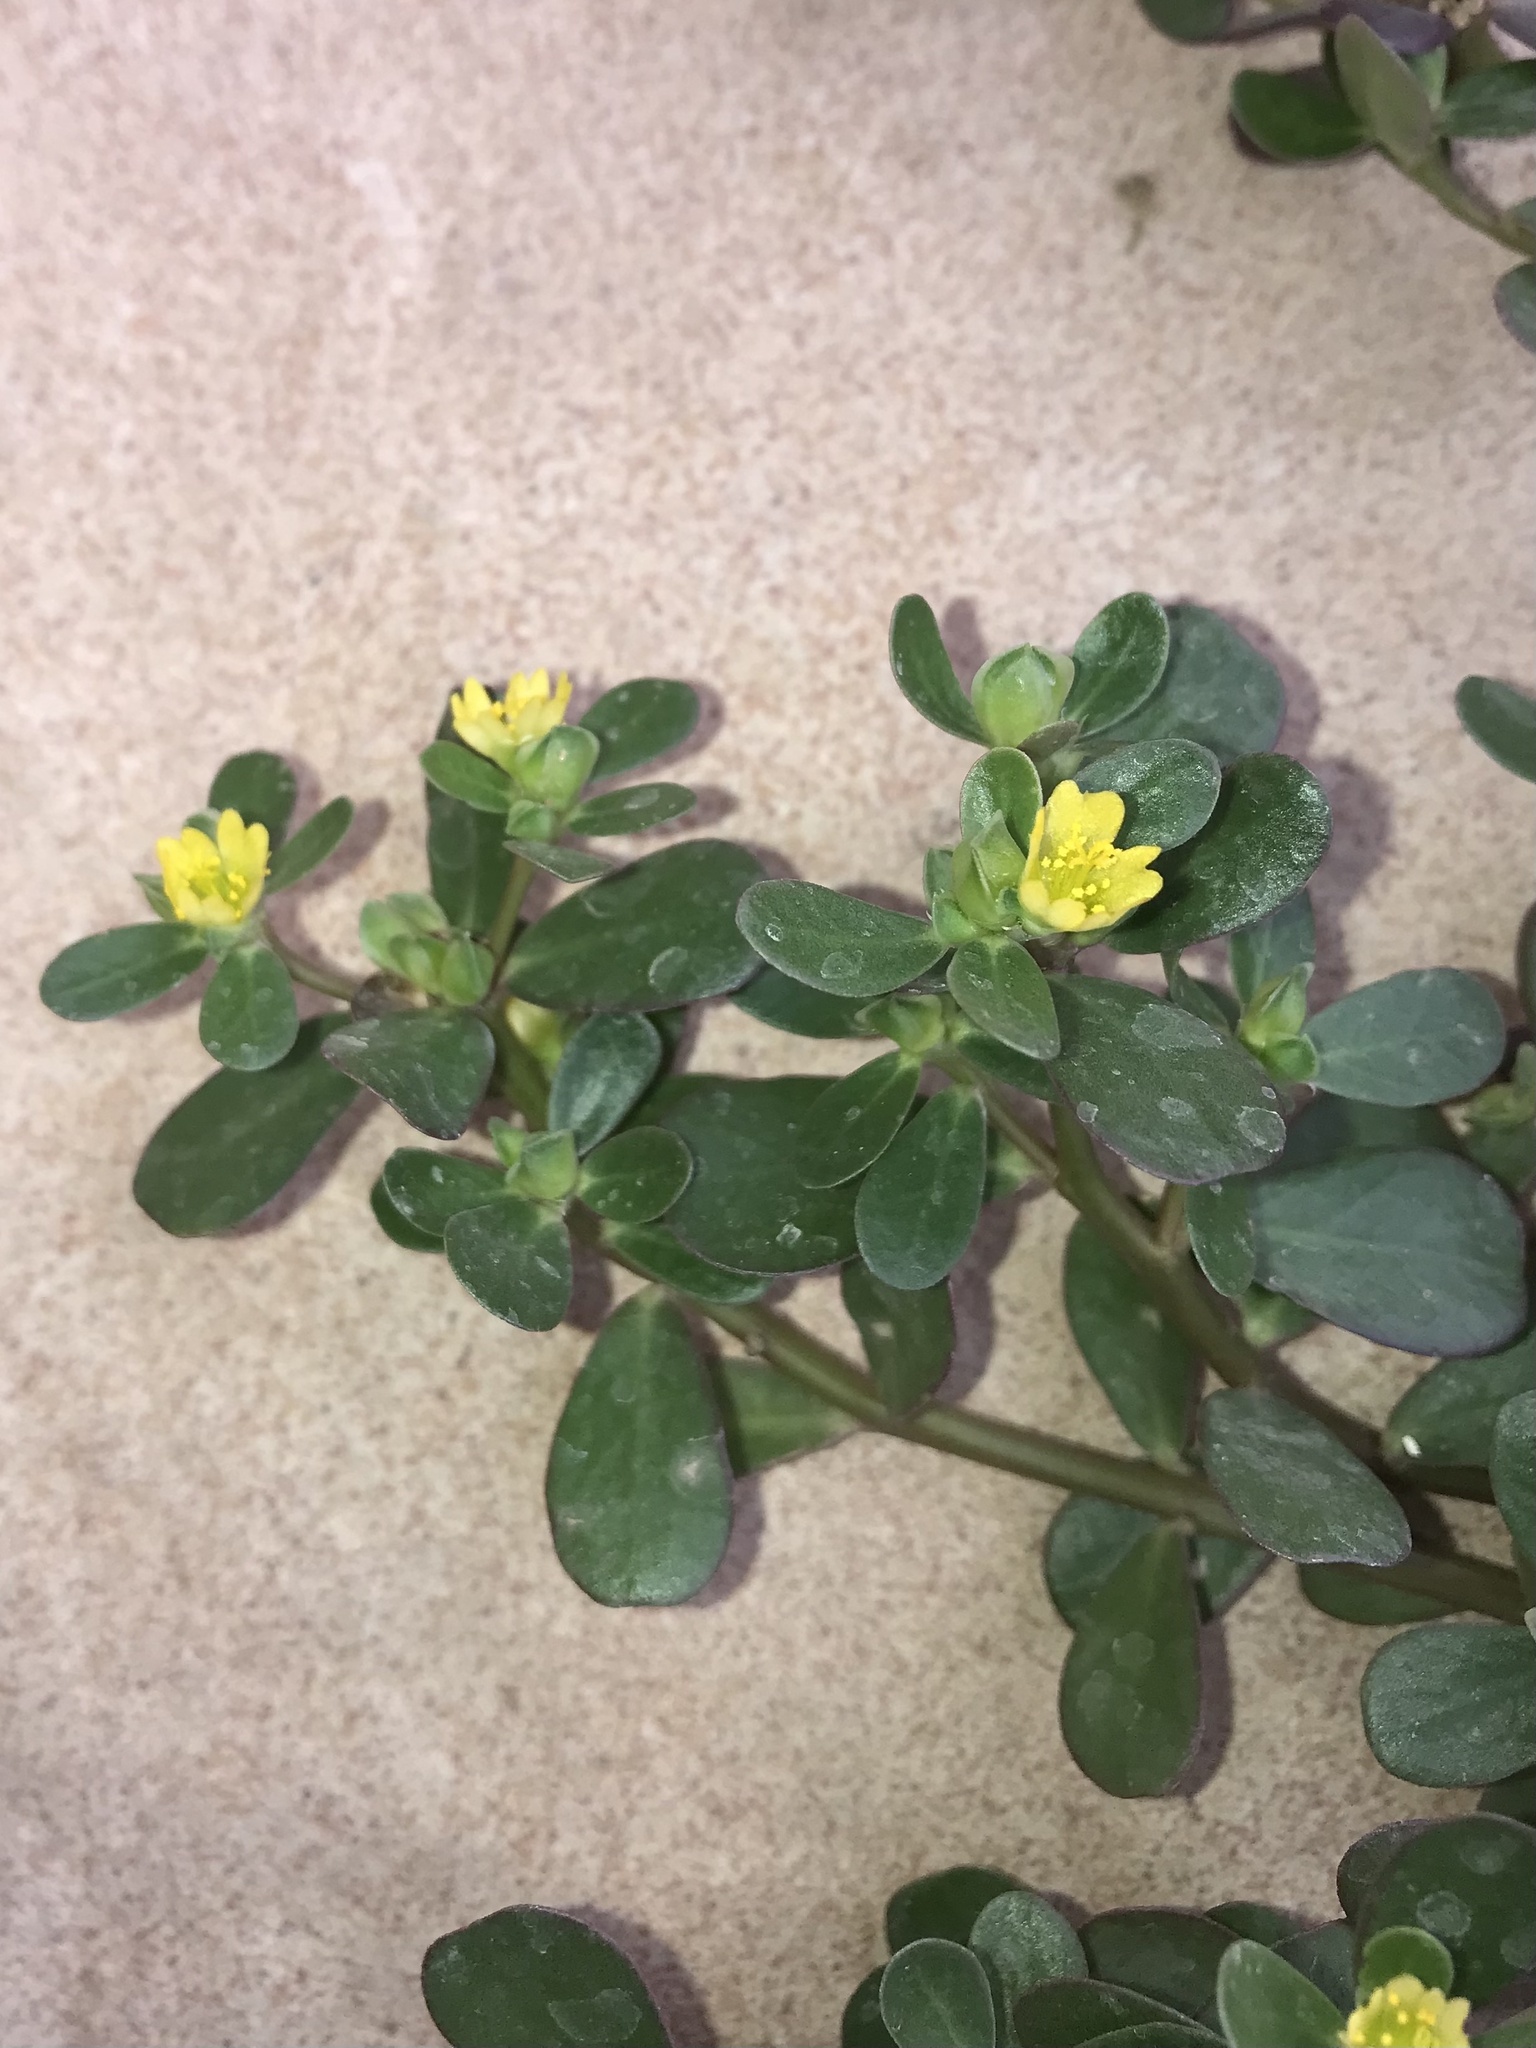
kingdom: Plantae
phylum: Tracheophyta
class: Magnoliopsida
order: Caryophyllales
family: Portulacaceae
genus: Portulaca
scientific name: Portulaca oleracea
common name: Common purslane
